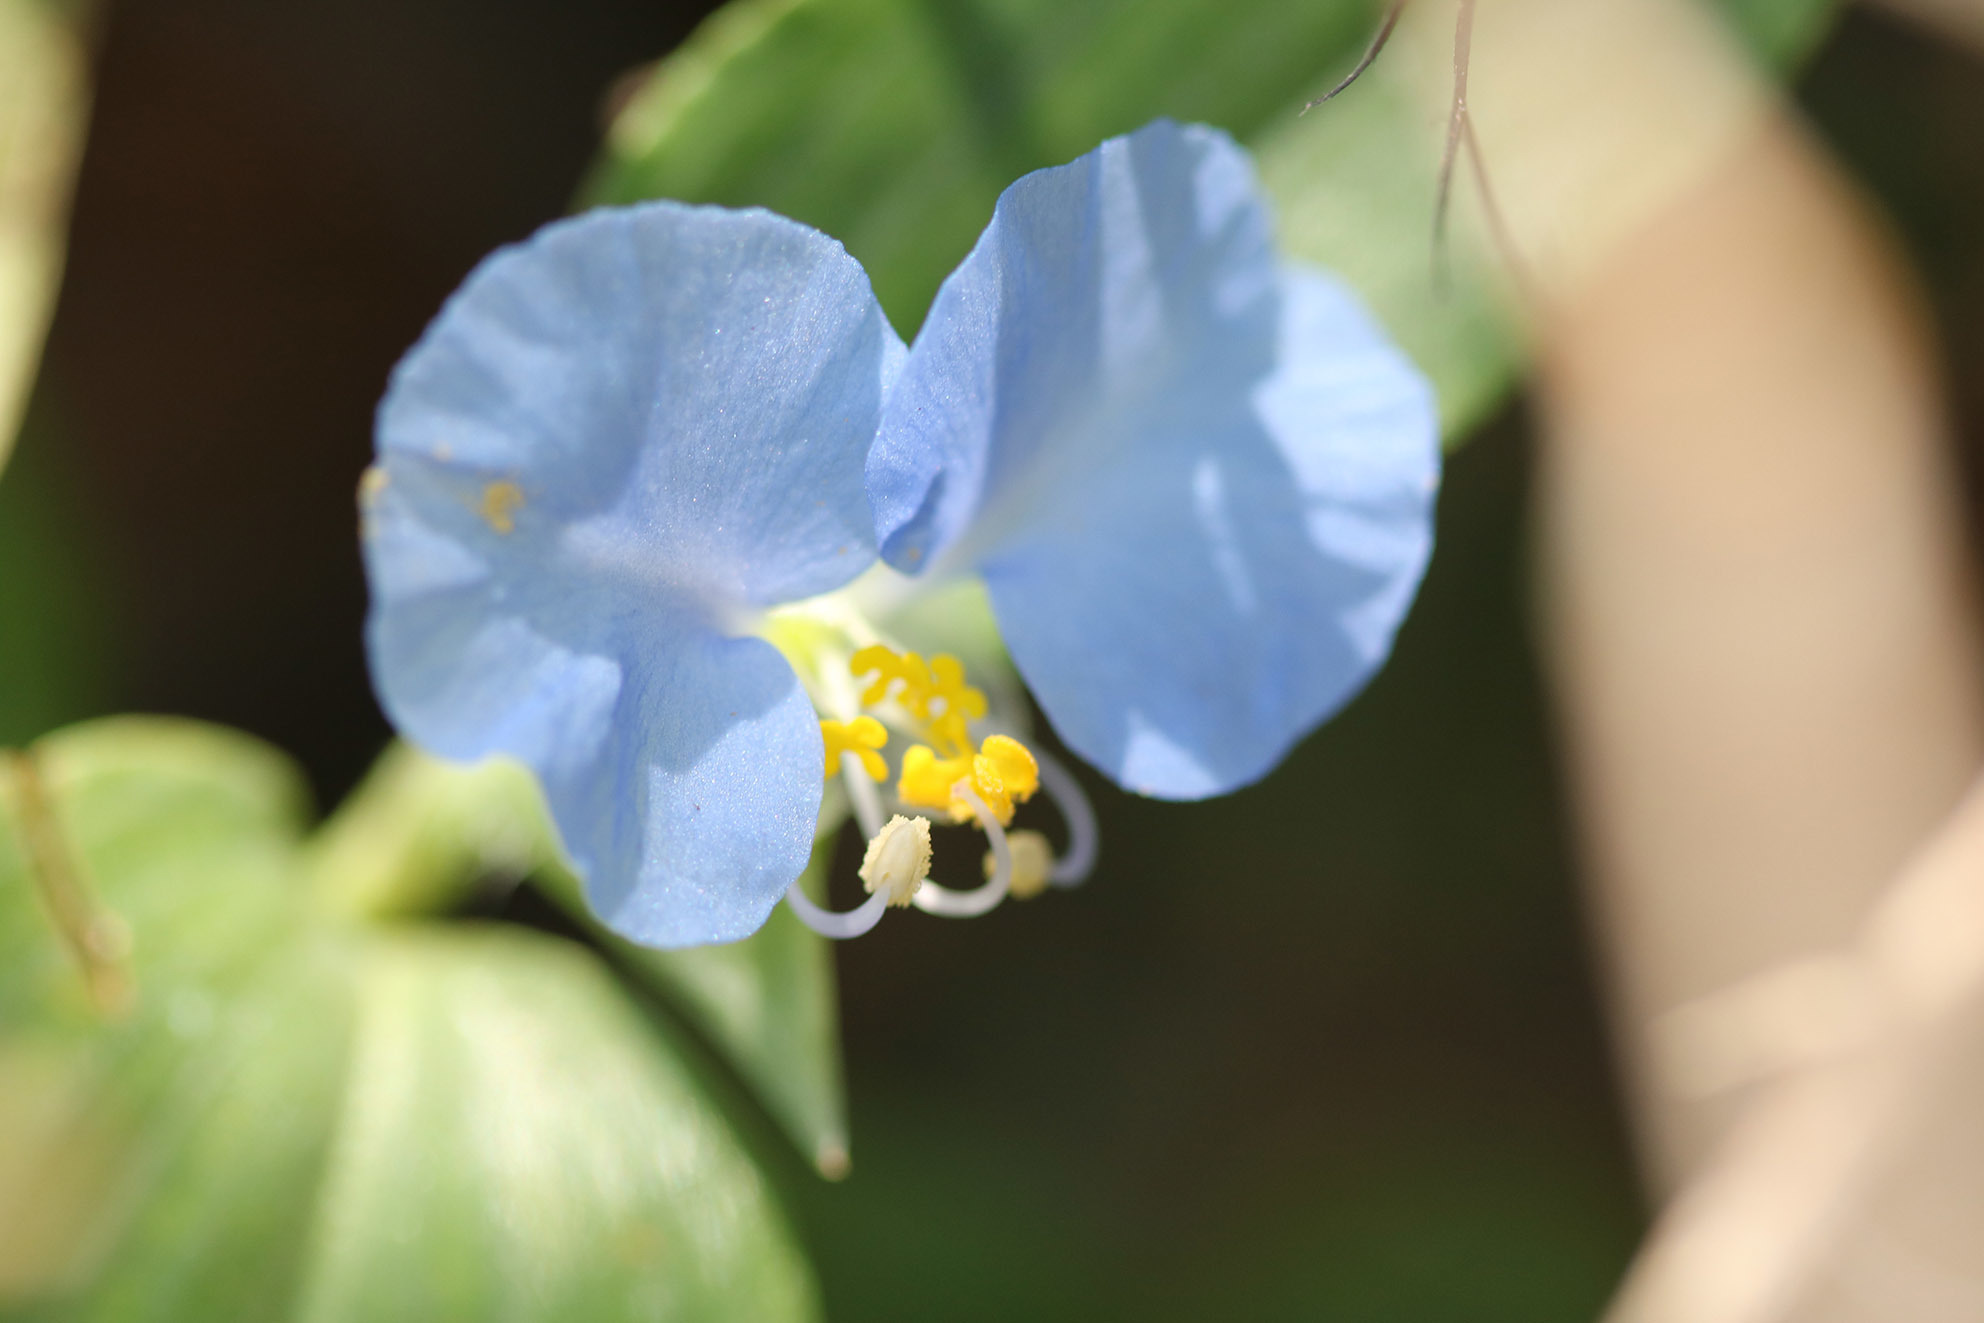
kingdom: Plantae
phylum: Tracheophyta
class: Liliopsida
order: Commelinales
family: Commelinaceae
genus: Commelina
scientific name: Commelina erecta
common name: Blousel blommetjie
